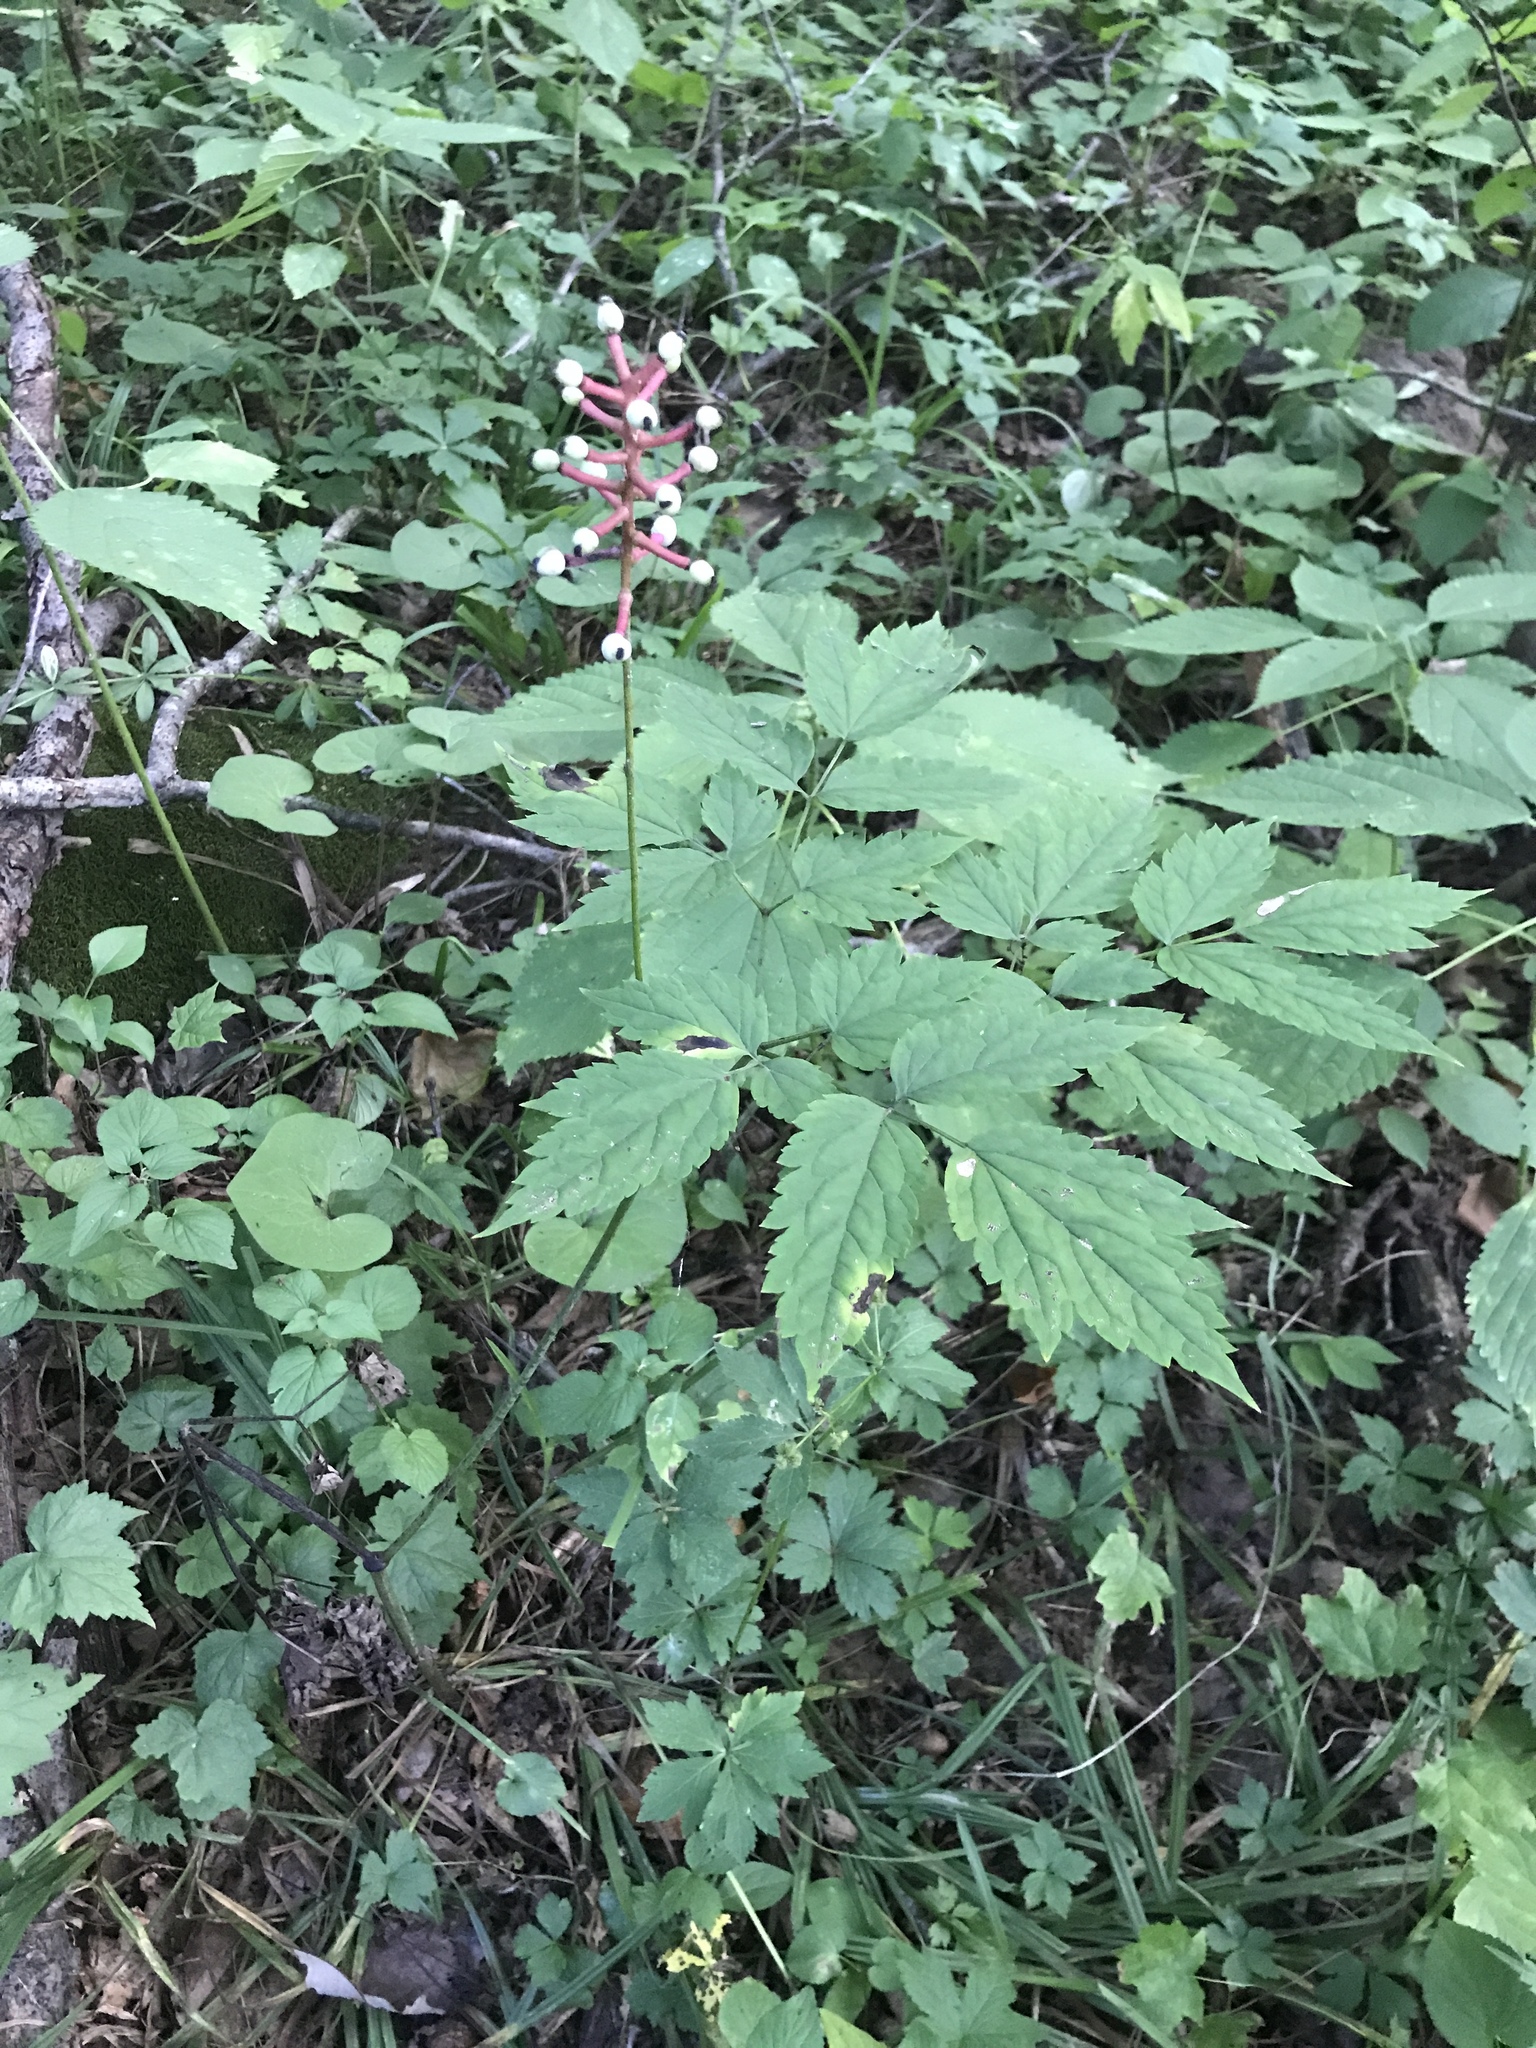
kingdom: Plantae
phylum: Tracheophyta
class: Magnoliopsida
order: Ranunculales
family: Ranunculaceae
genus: Actaea
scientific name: Actaea pachypoda
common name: Doll's-eyes
